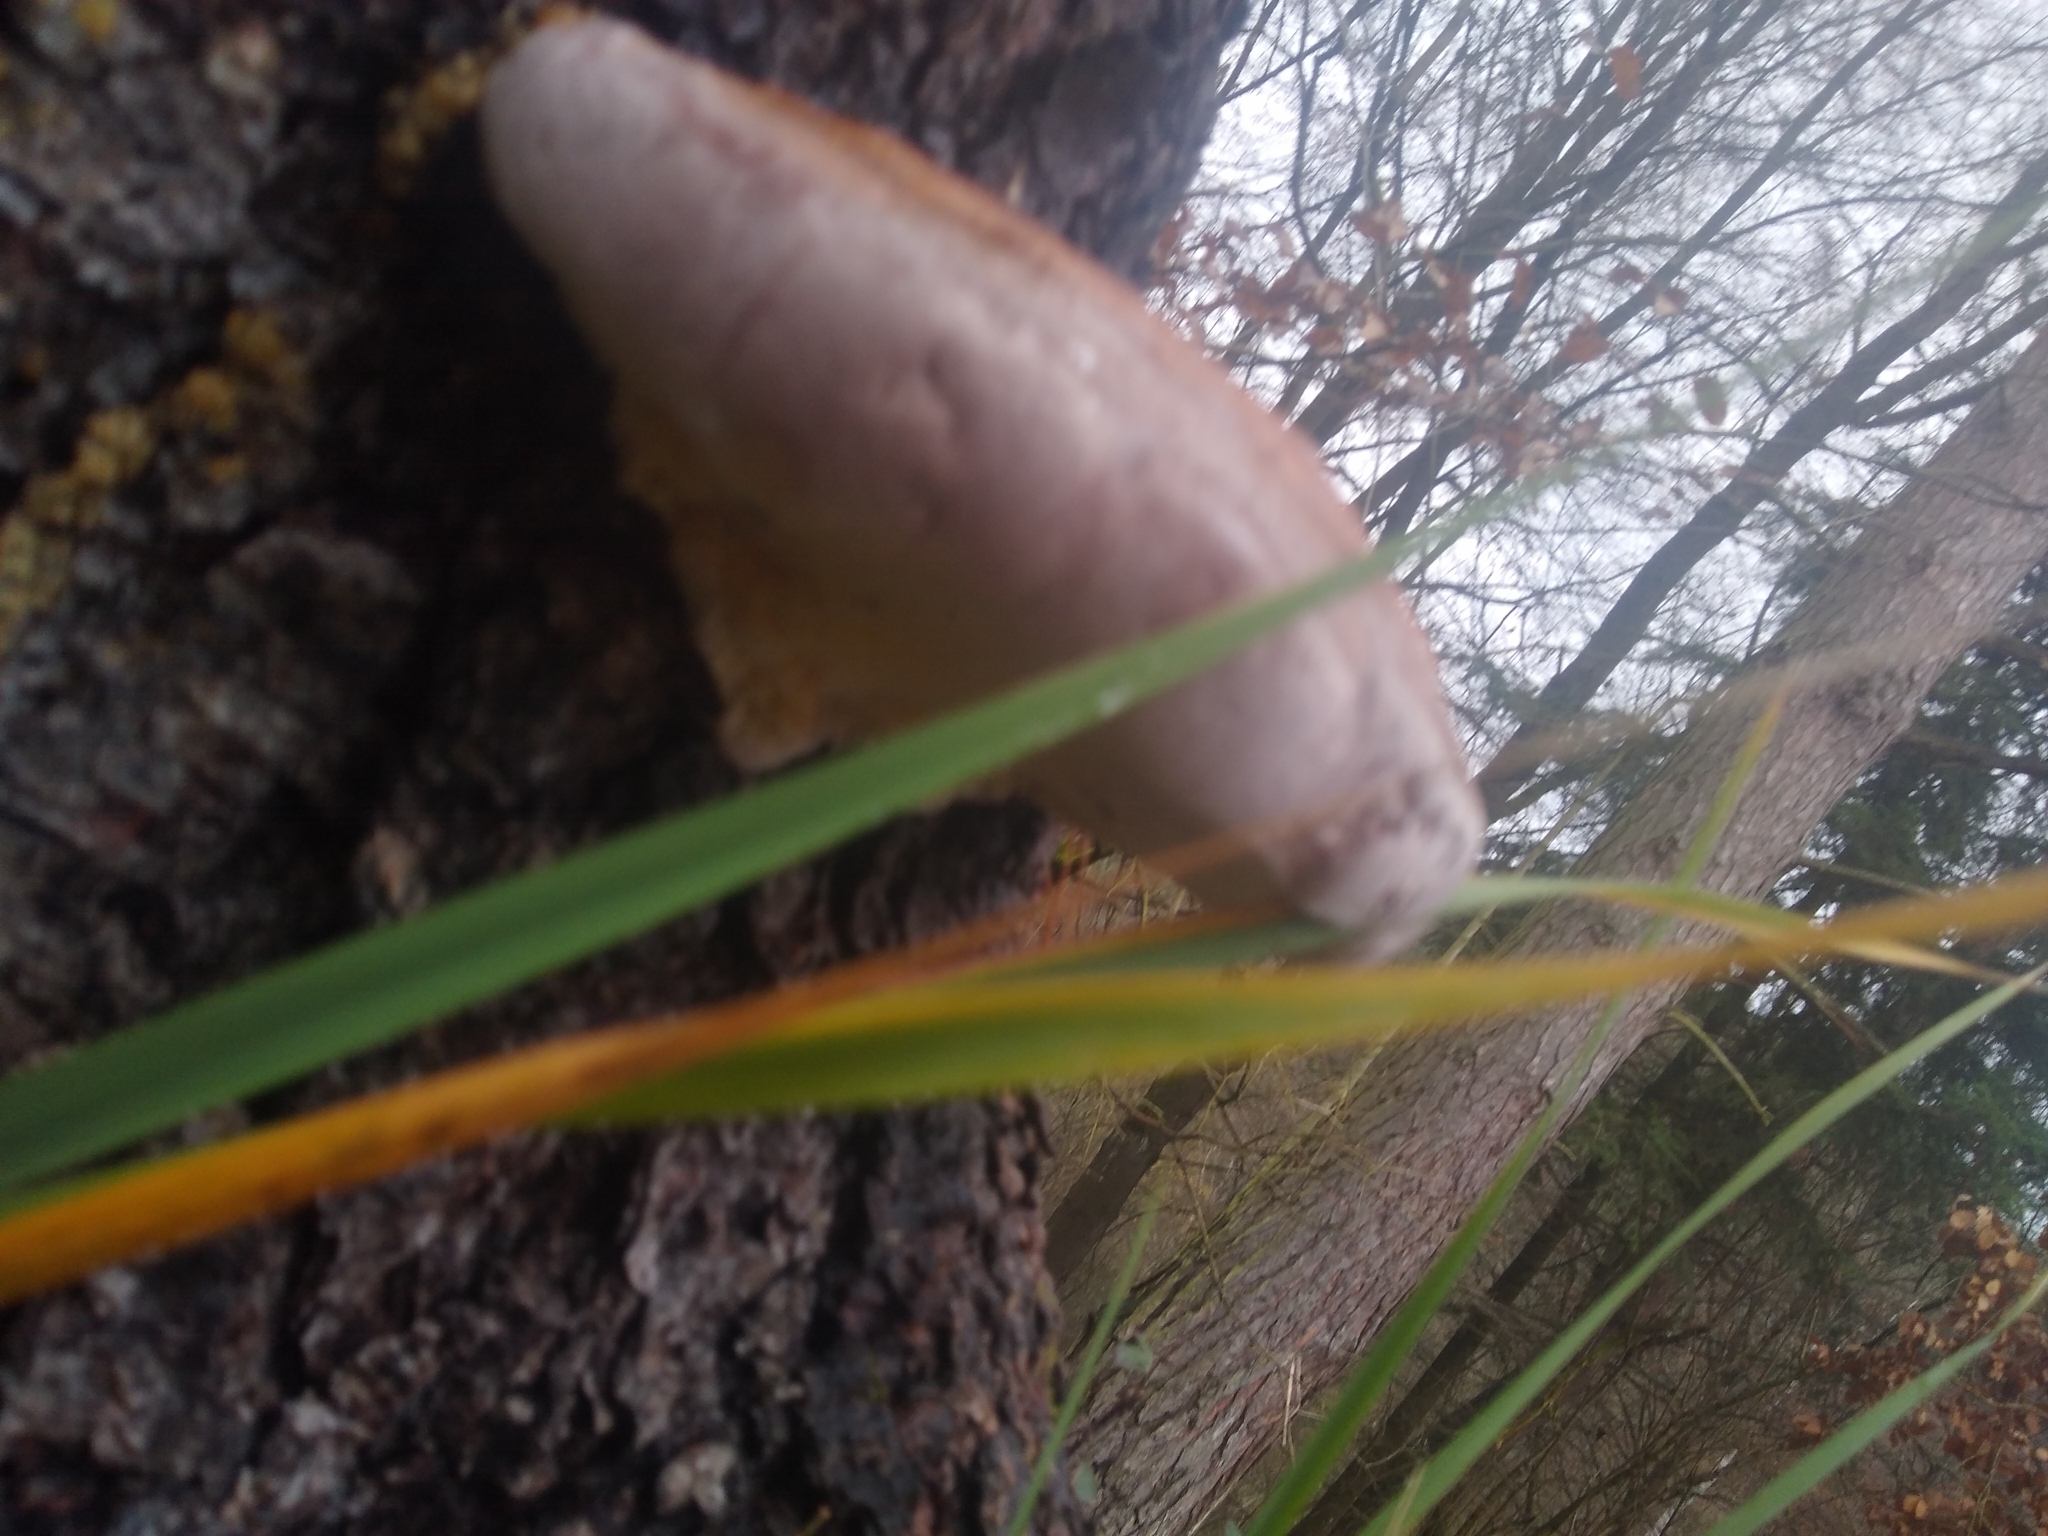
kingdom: Fungi
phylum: Basidiomycota
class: Agaricomycetes
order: Polyporales
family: Fomitopsidaceae
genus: Fomitopsis
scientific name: Fomitopsis pinicola
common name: Red-belted bracket
